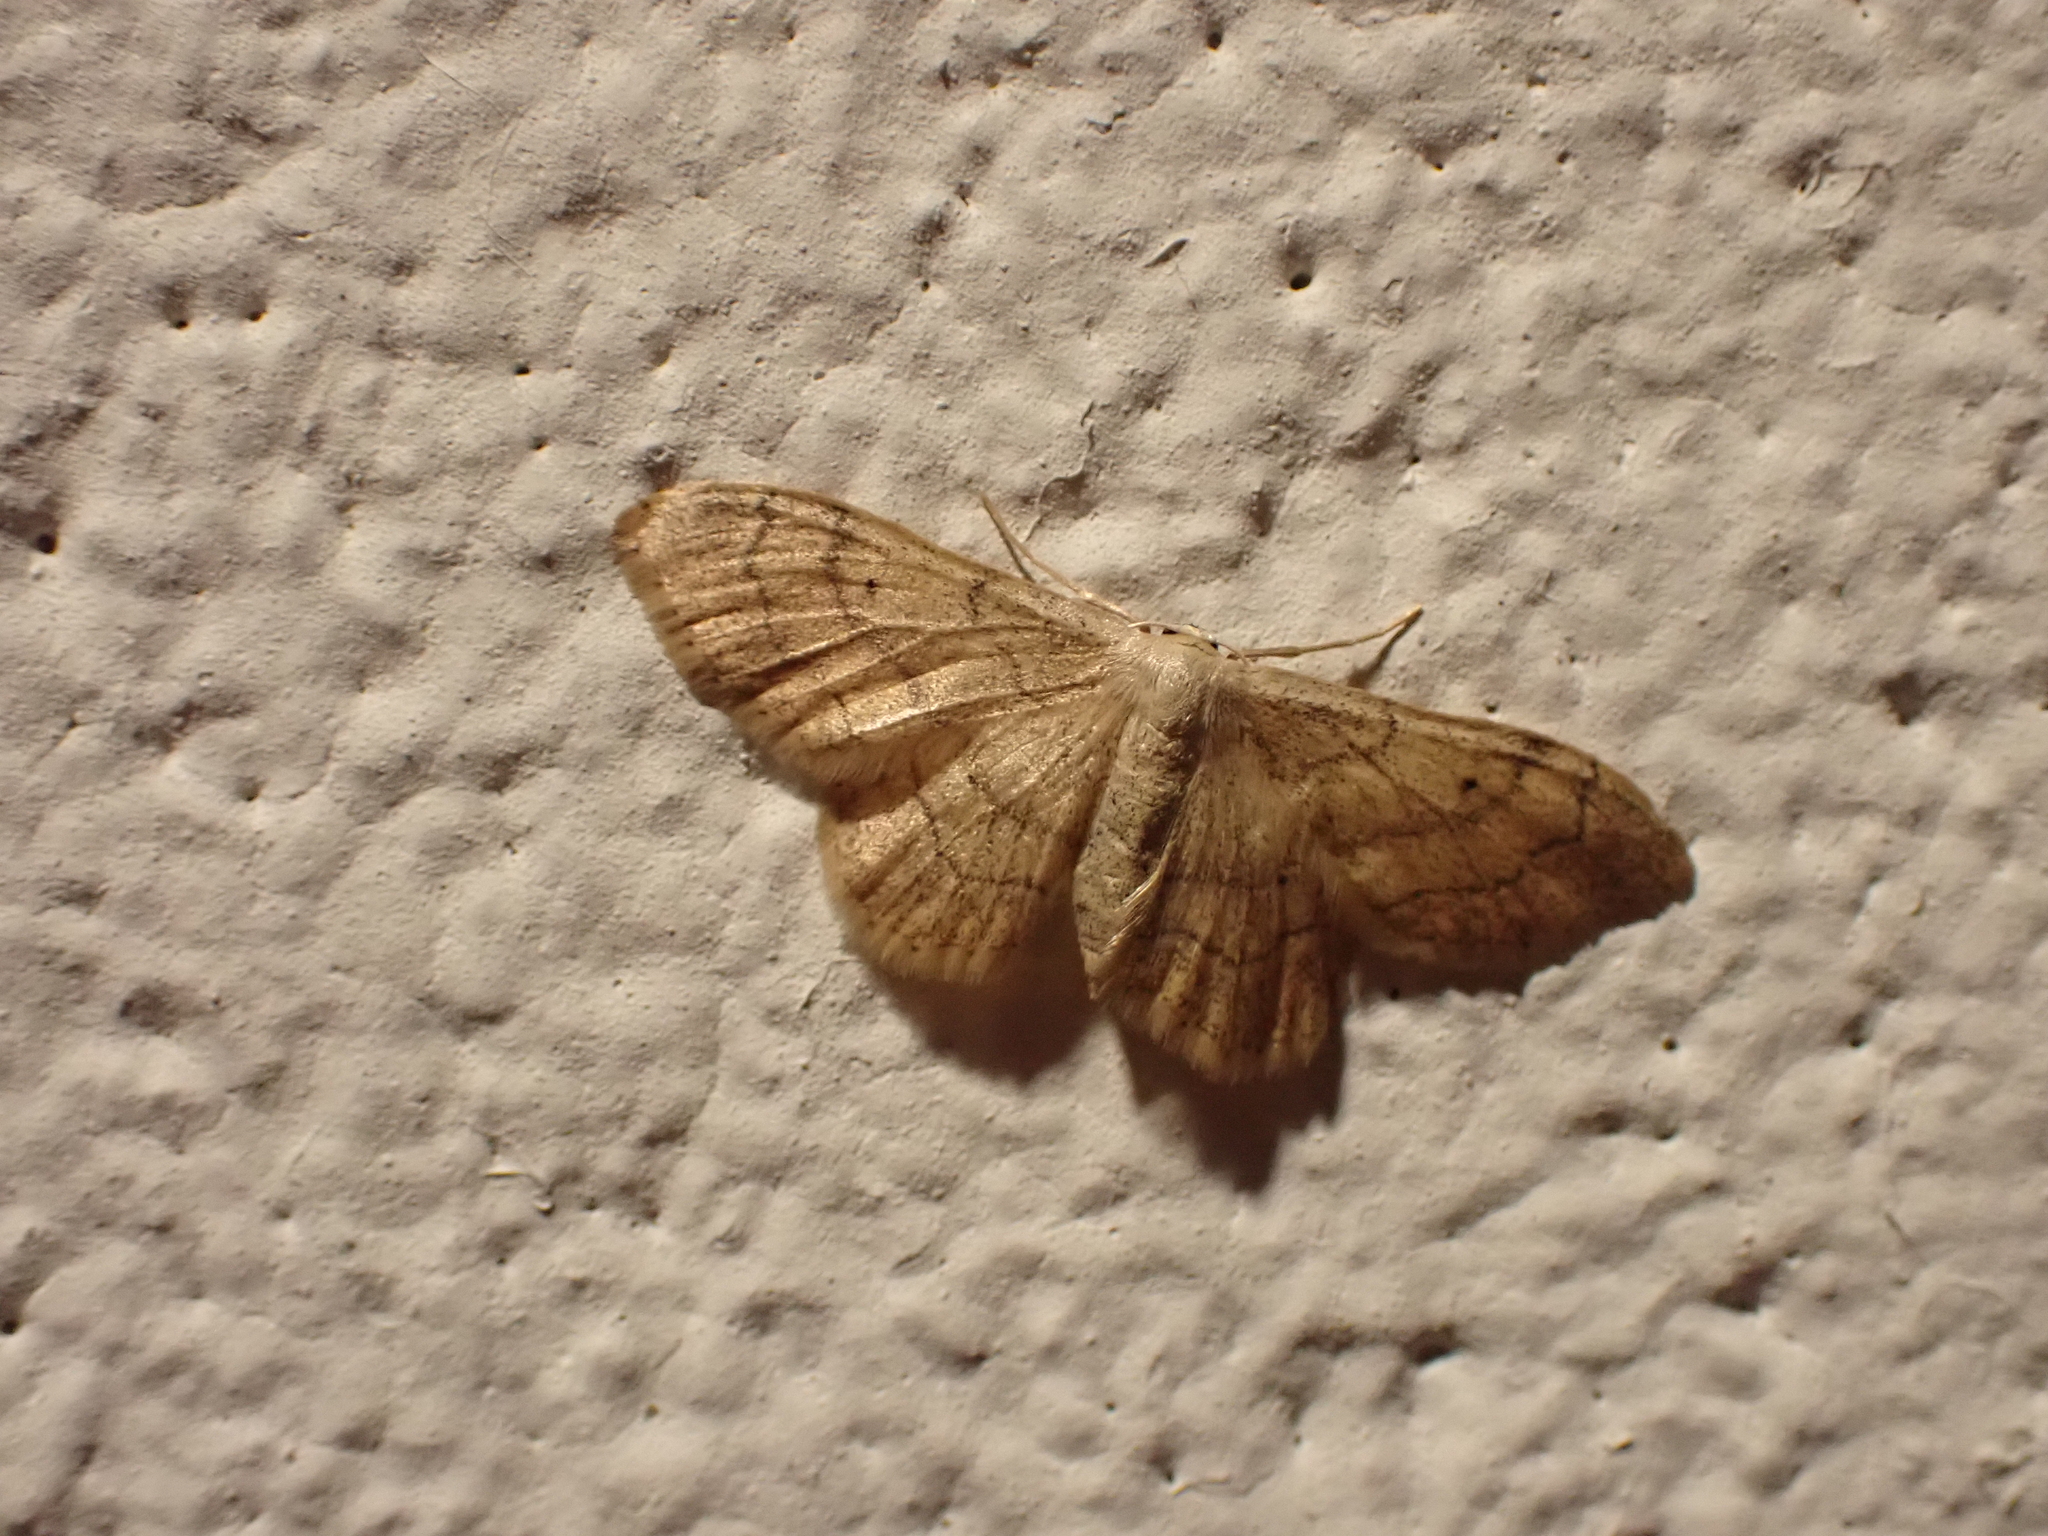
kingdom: Animalia
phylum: Arthropoda
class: Insecta
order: Lepidoptera
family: Geometridae
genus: Idaea
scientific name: Idaea aversata
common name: Riband wave
